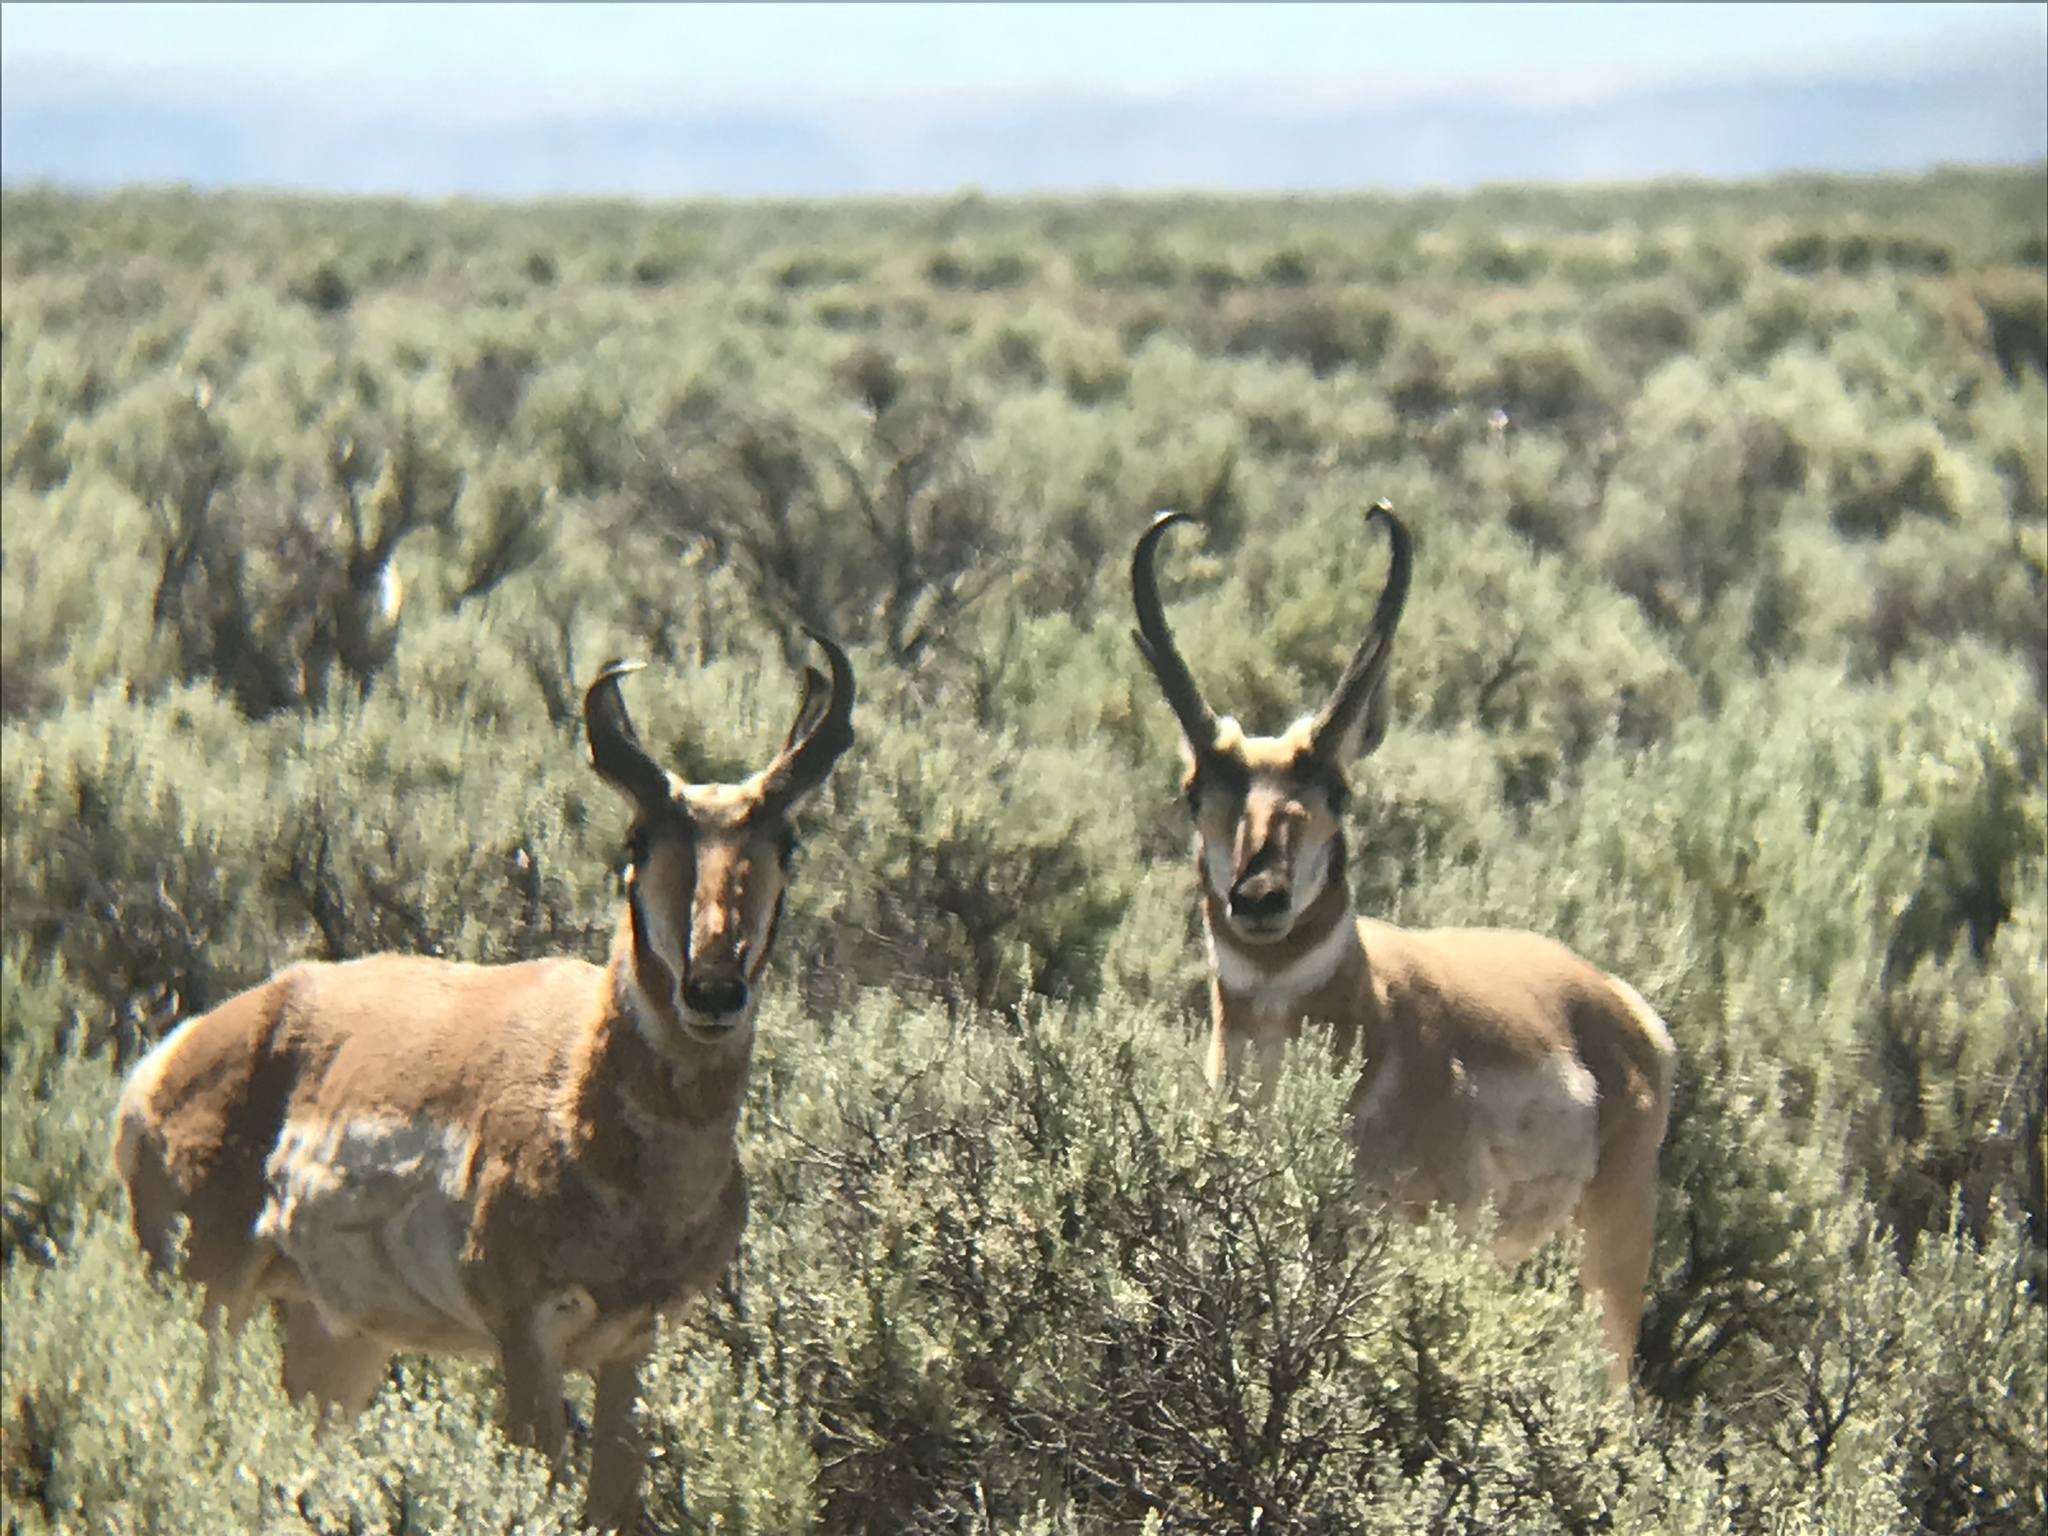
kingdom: Animalia
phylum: Chordata
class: Mammalia
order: Artiodactyla
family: Antilocapridae
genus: Antilocapra
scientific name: Antilocapra americana
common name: Pronghorn
